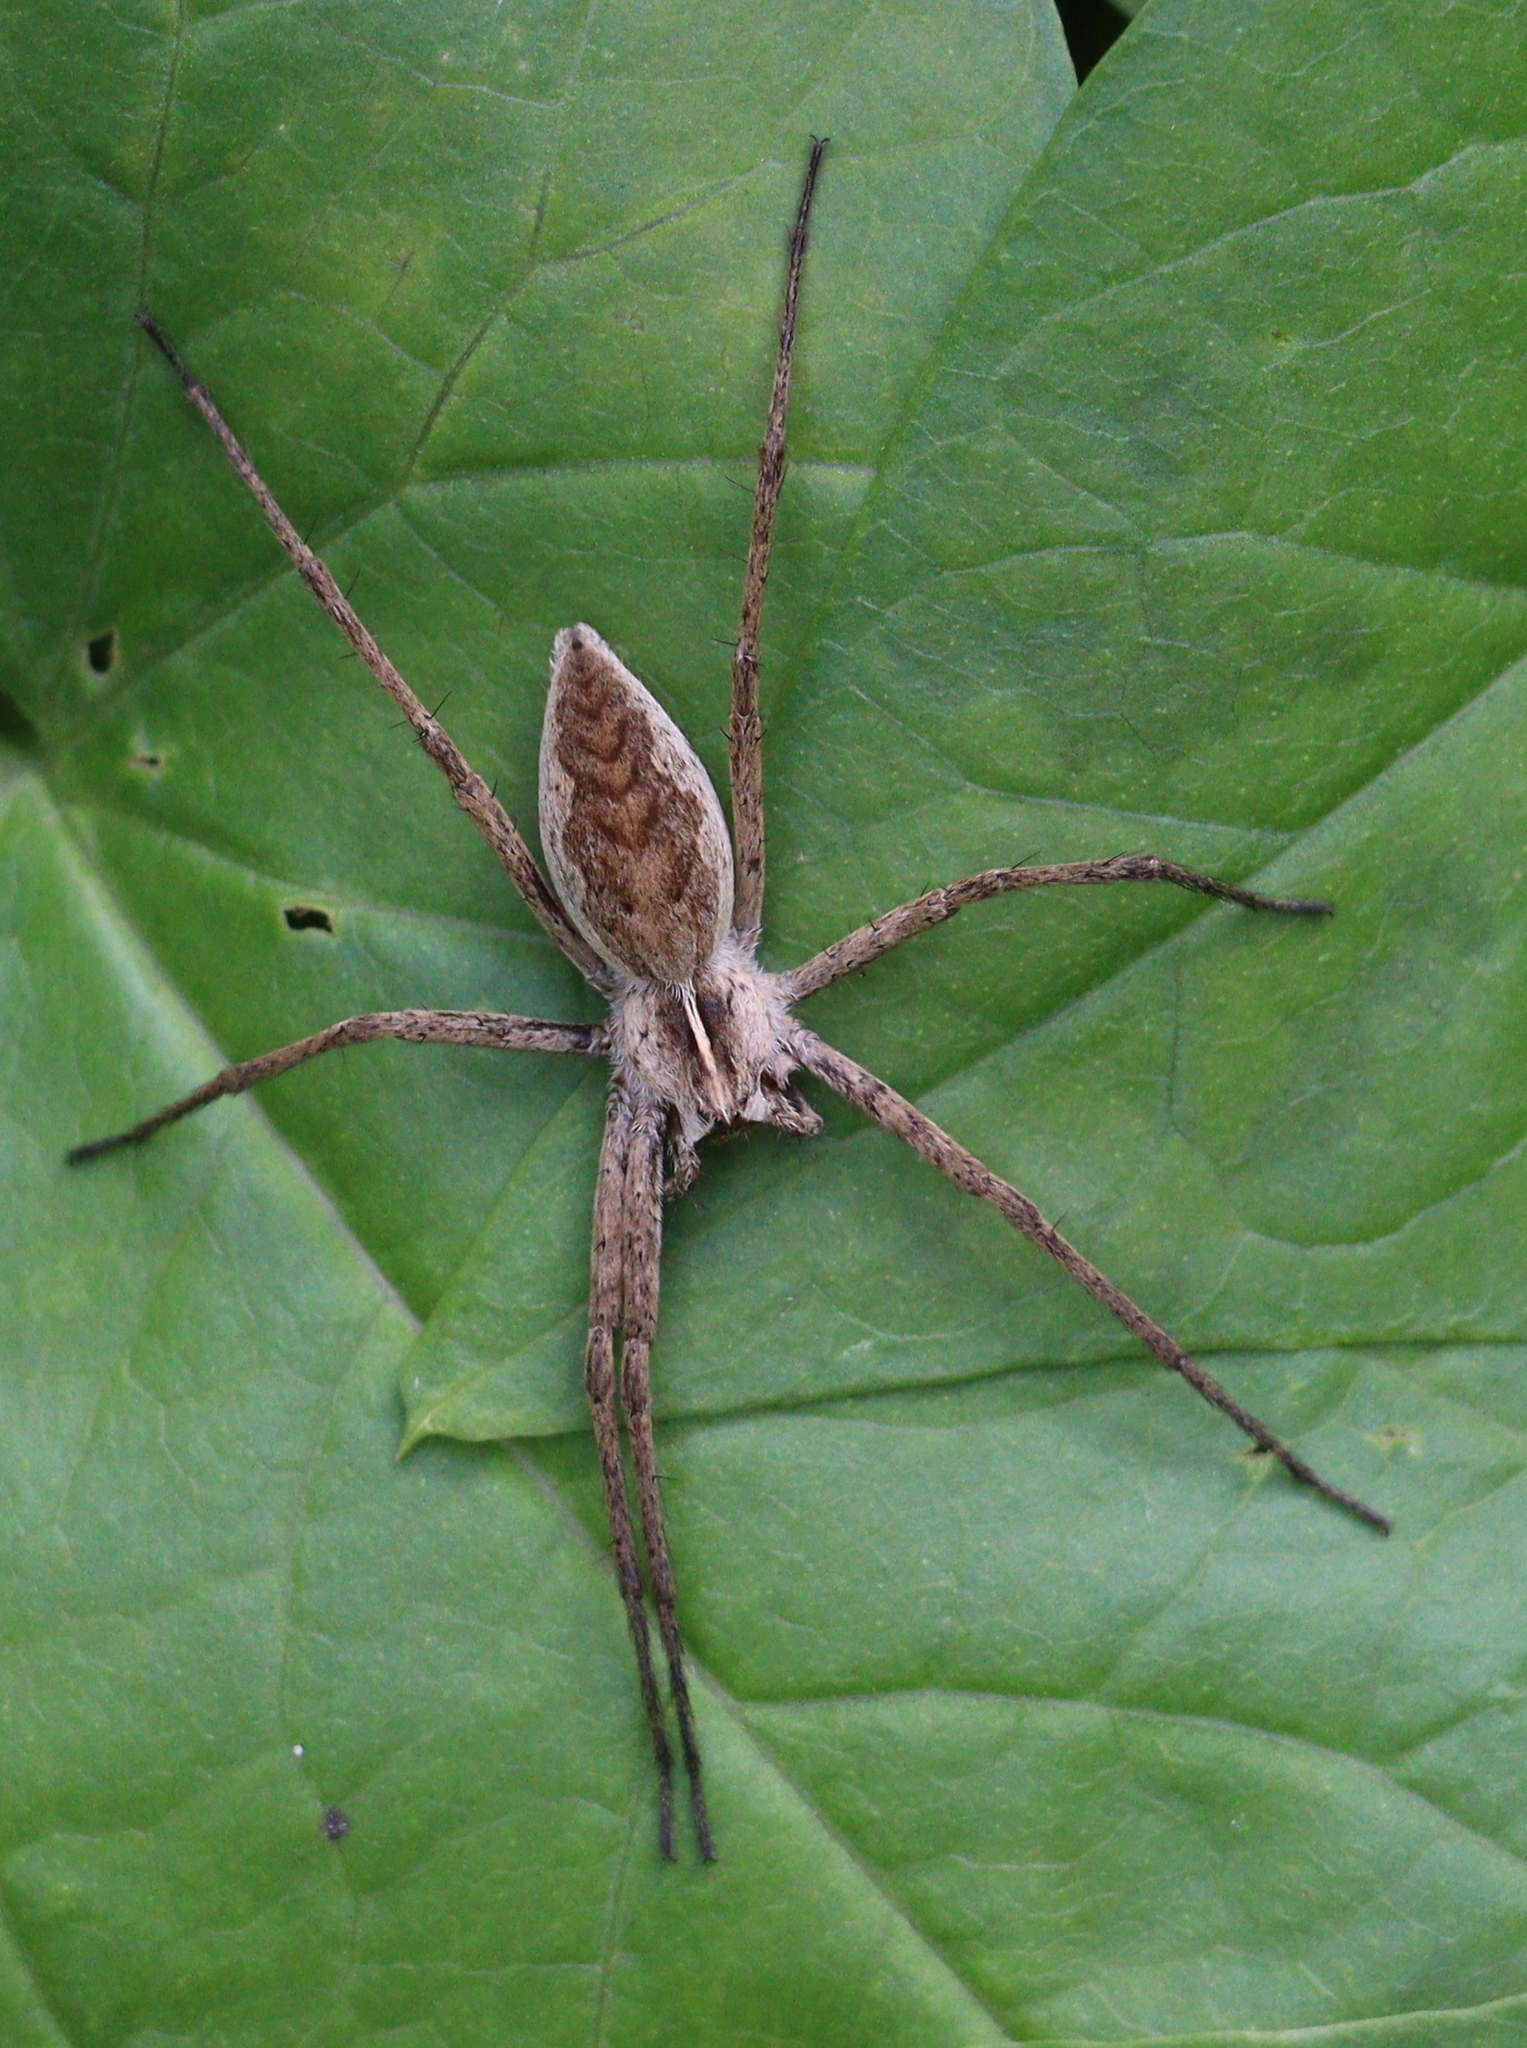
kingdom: Animalia
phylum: Arthropoda
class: Arachnida
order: Araneae
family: Pisauridae
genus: Pisaura
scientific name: Pisaura mirabilis
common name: Tent spider
